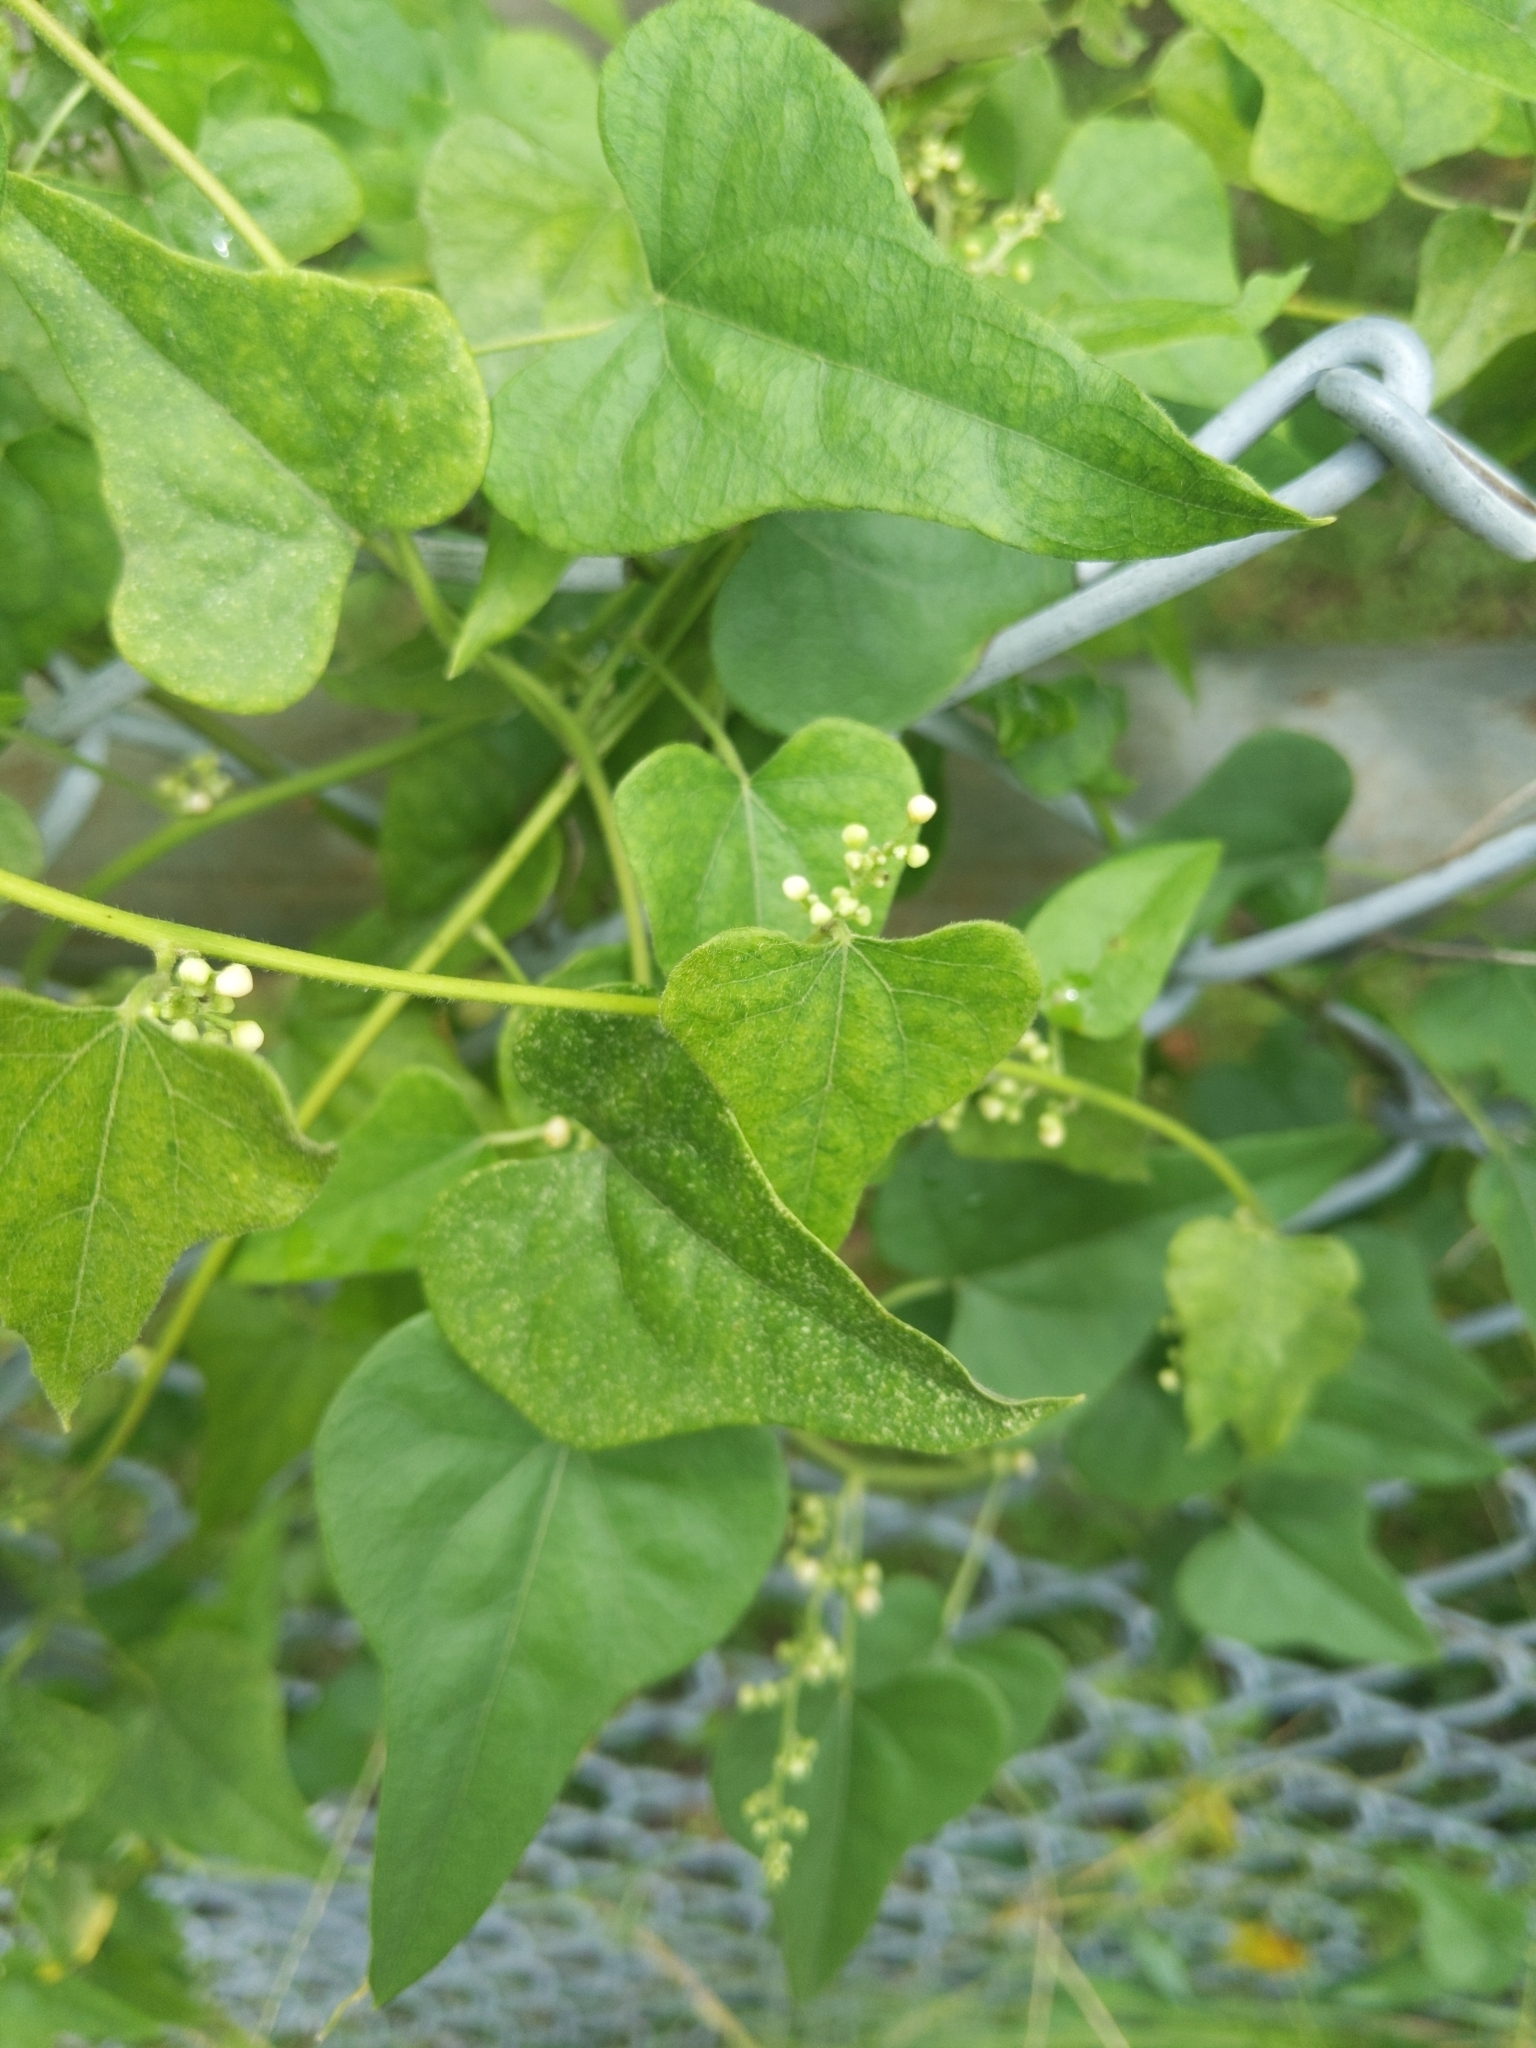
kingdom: Plantae
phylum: Tracheophyta
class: Magnoliopsida
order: Ranunculales
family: Menispermaceae
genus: Cocculus
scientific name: Cocculus carolinus
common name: Carolina moonseed
